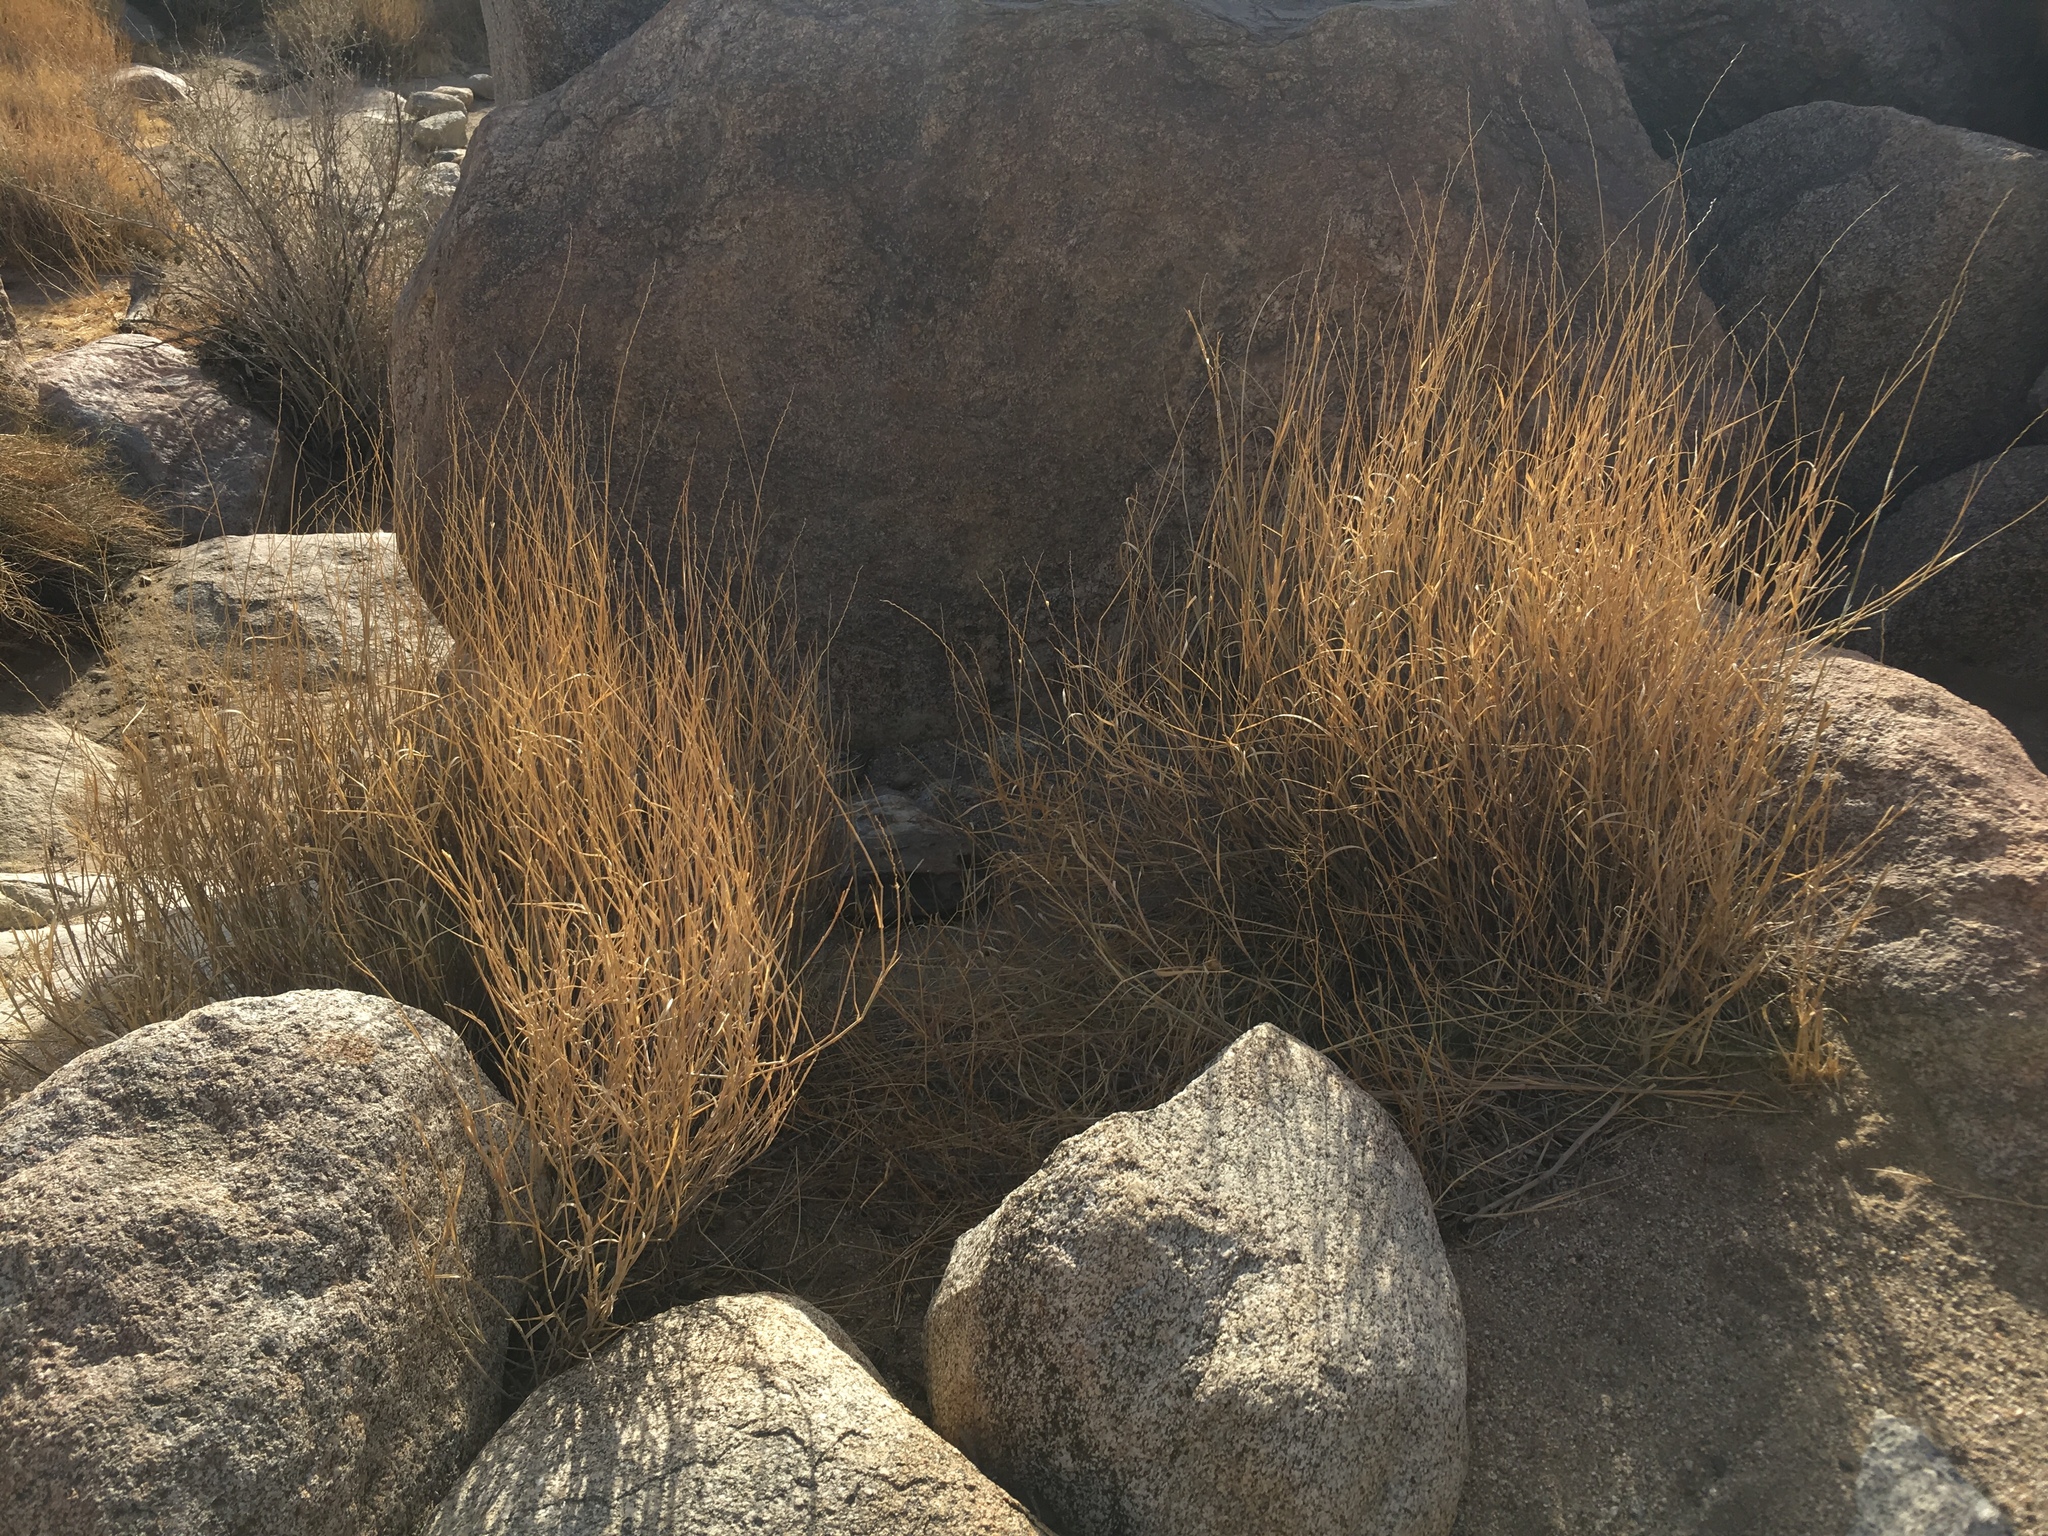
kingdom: Plantae
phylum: Tracheophyta
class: Liliopsida
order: Poales
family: Poaceae
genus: Hilaria
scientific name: Hilaria rigida
